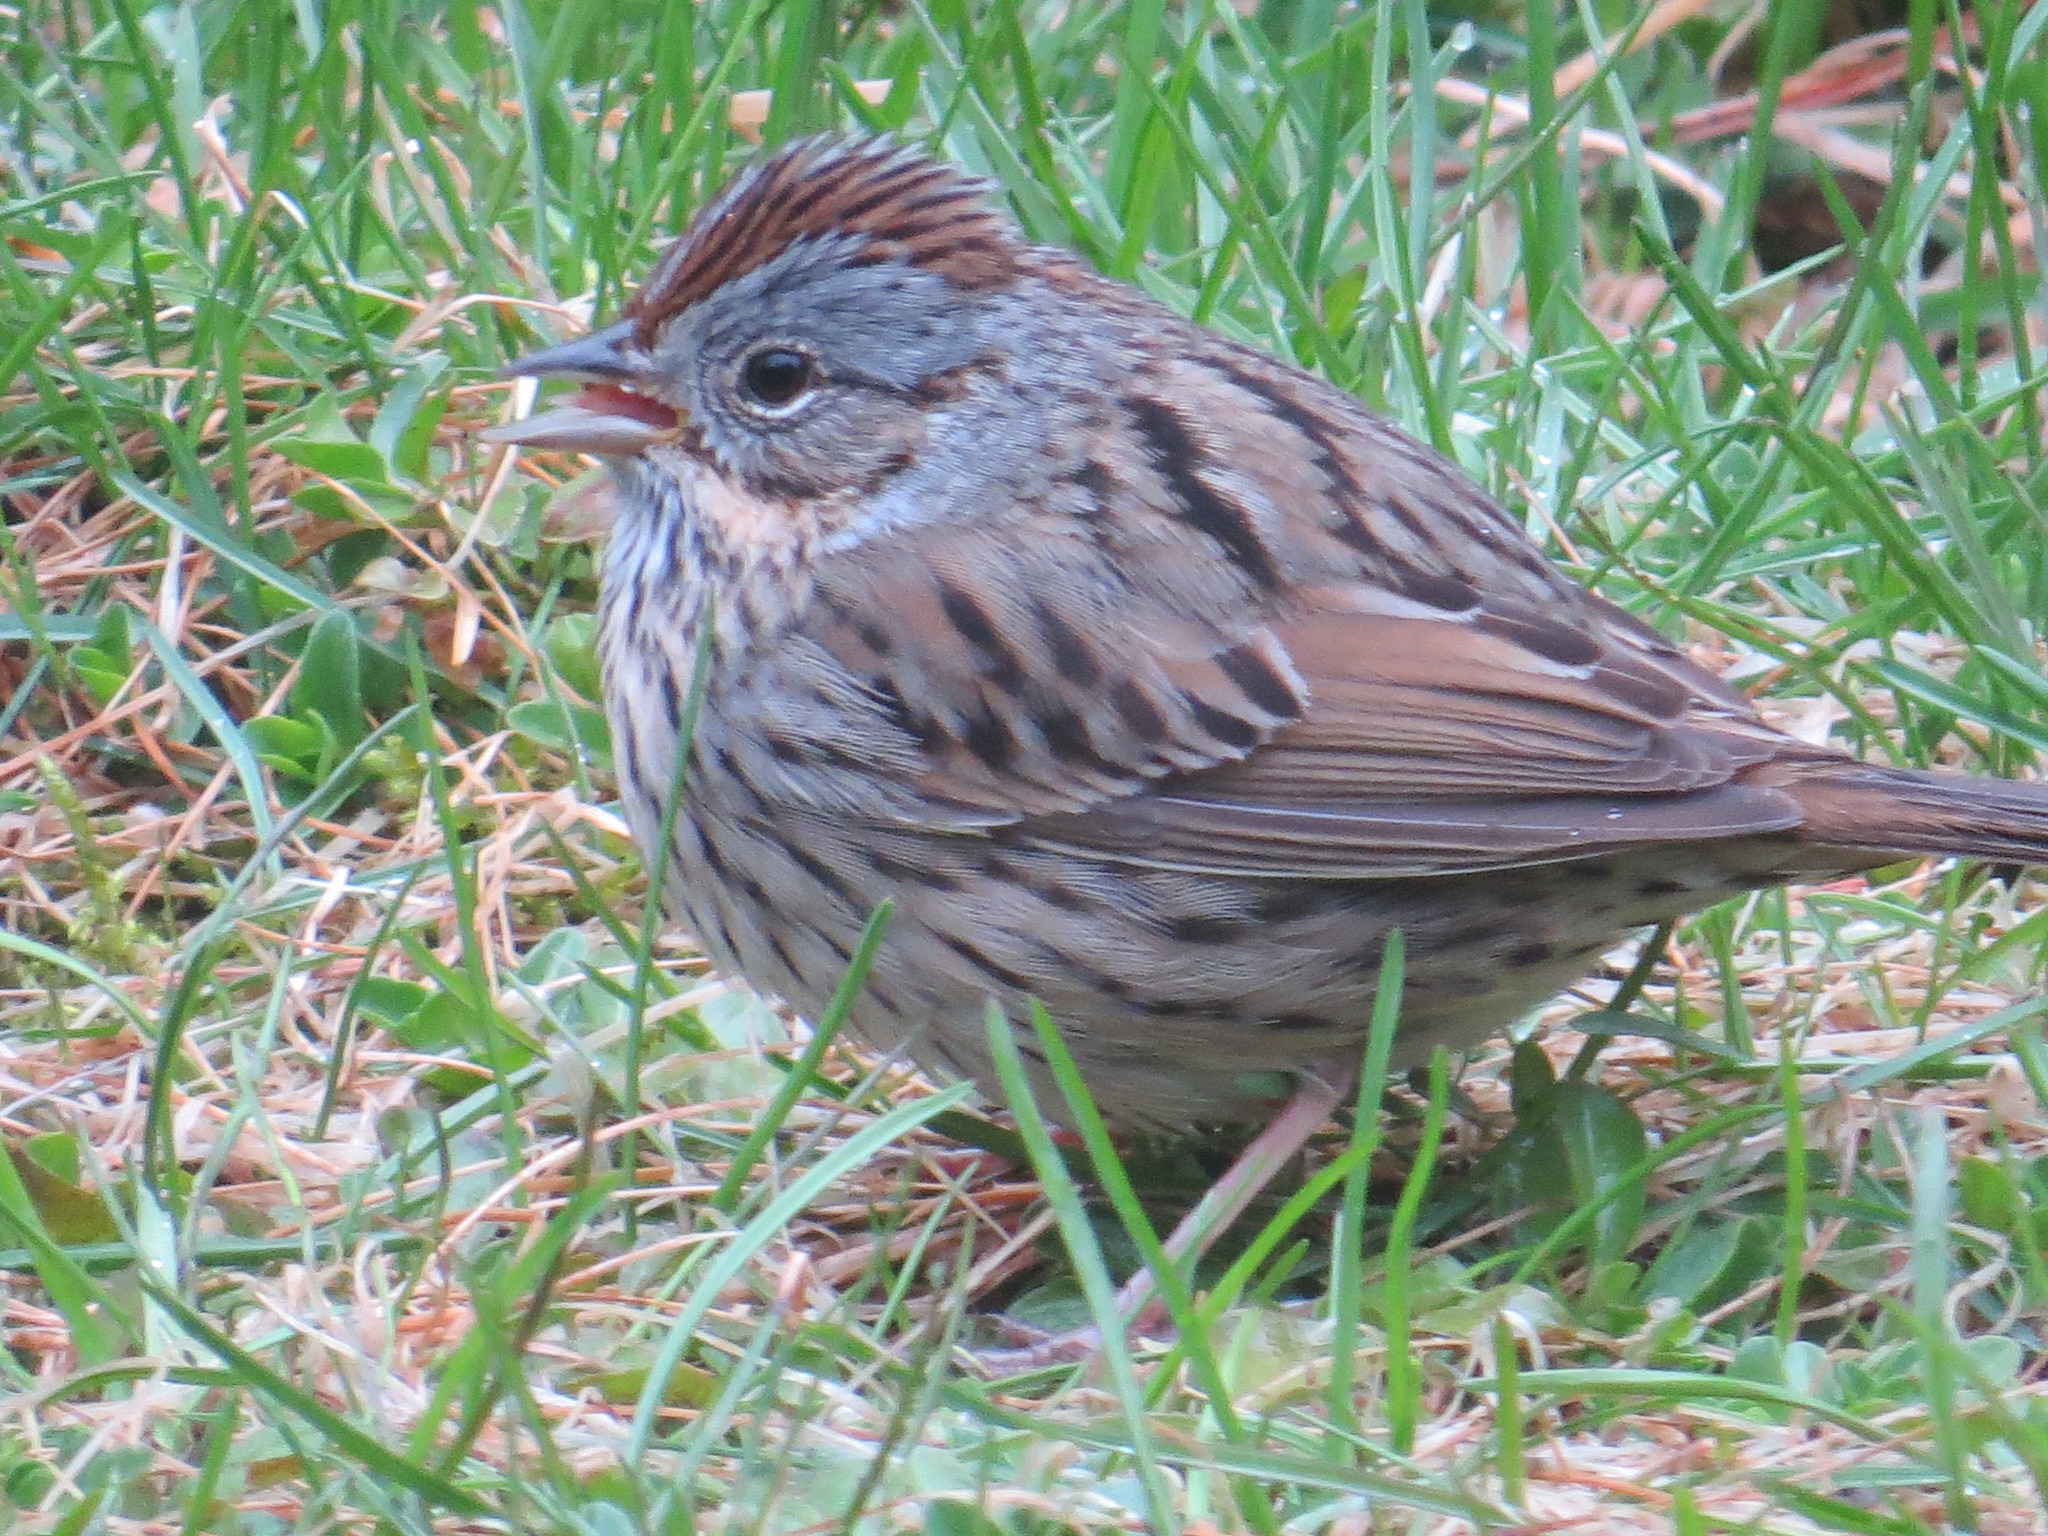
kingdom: Animalia
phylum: Chordata
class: Aves
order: Passeriformes
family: Passerellidae
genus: Melospiza
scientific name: Melospiza lincolnii
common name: Lincoln's sparrow
